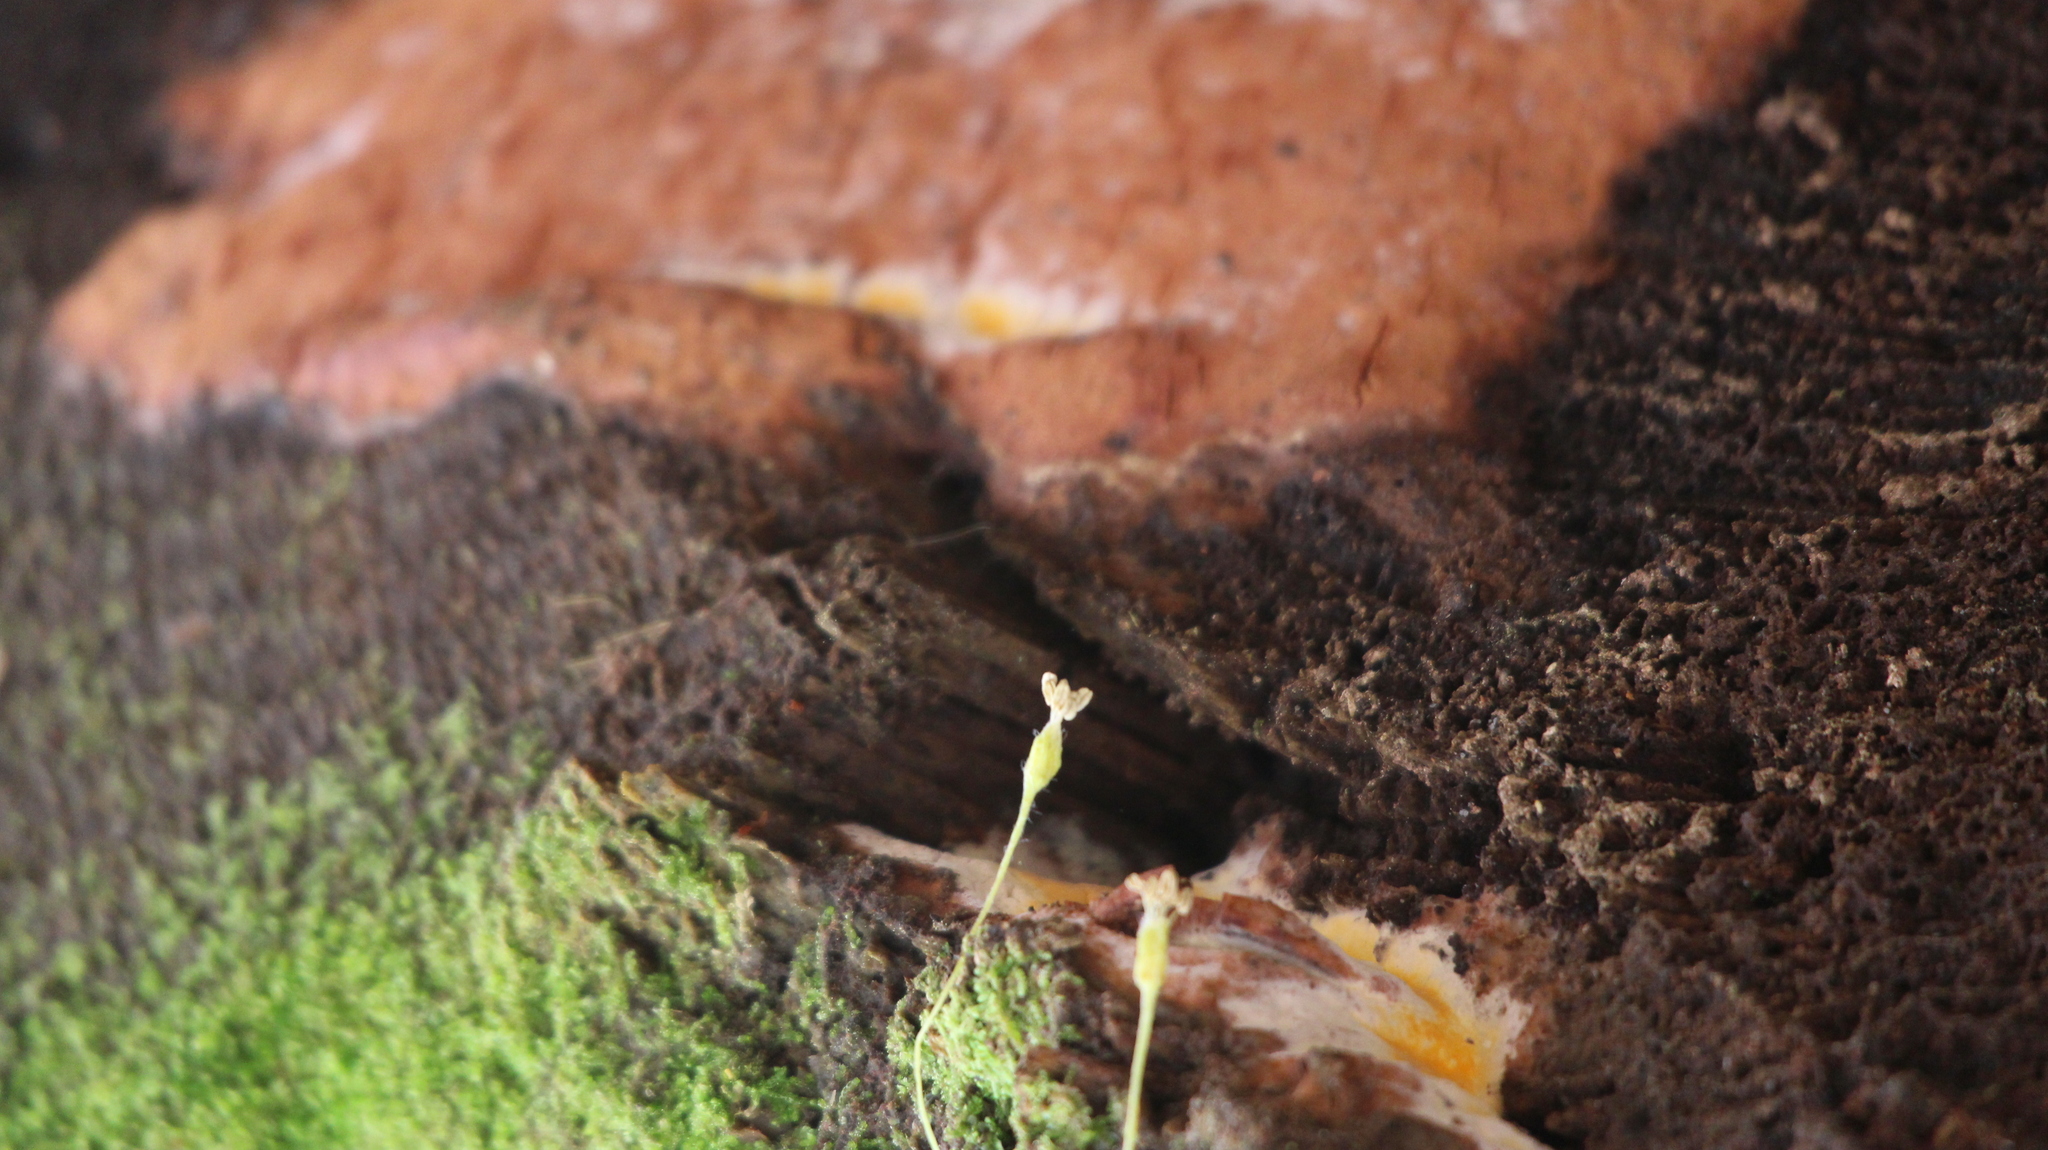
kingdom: Fungi
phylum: Basidiomycota
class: Agaricomycetes
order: Polyporales
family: Irpicaceae
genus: Ceriporia
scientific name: Ceriporia spissa
